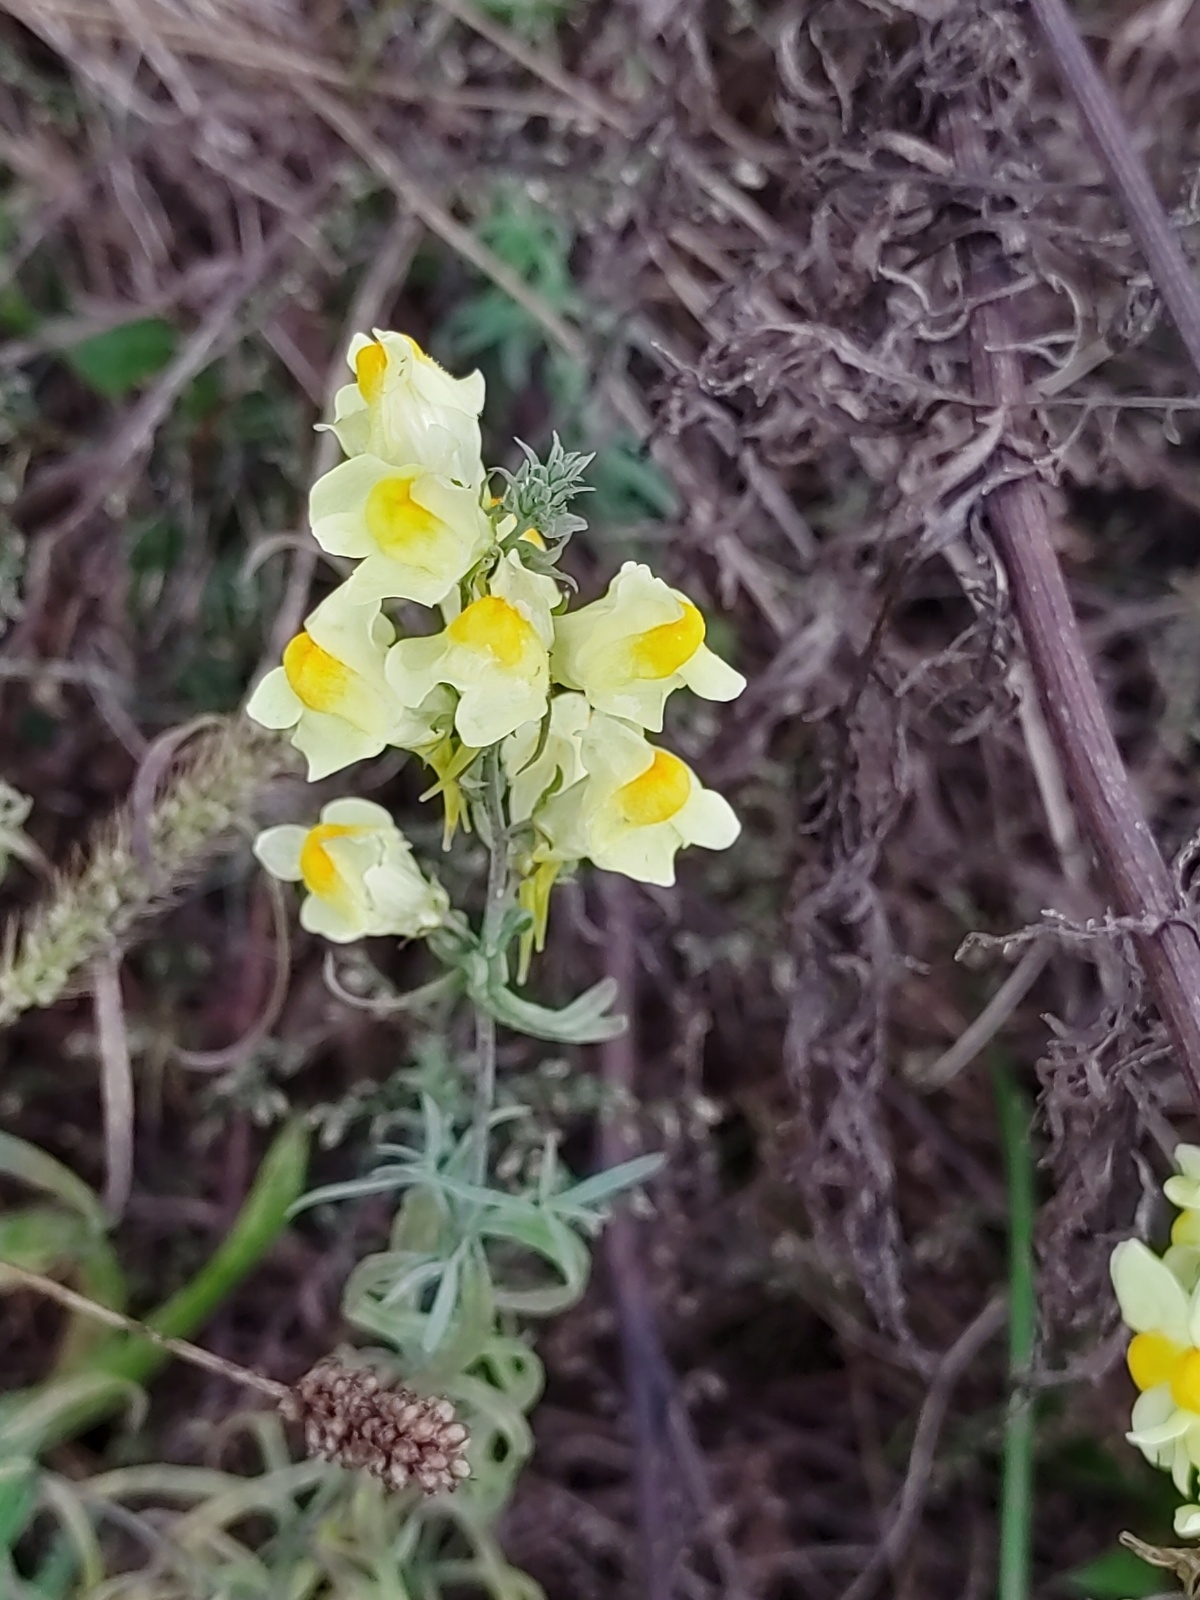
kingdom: Plantae
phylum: Tracheophyta
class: Magnoliopsida
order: Lamiales
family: Plantaginaceae
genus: Linaria
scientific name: Linaria vulgaris
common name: Butter and eggs
